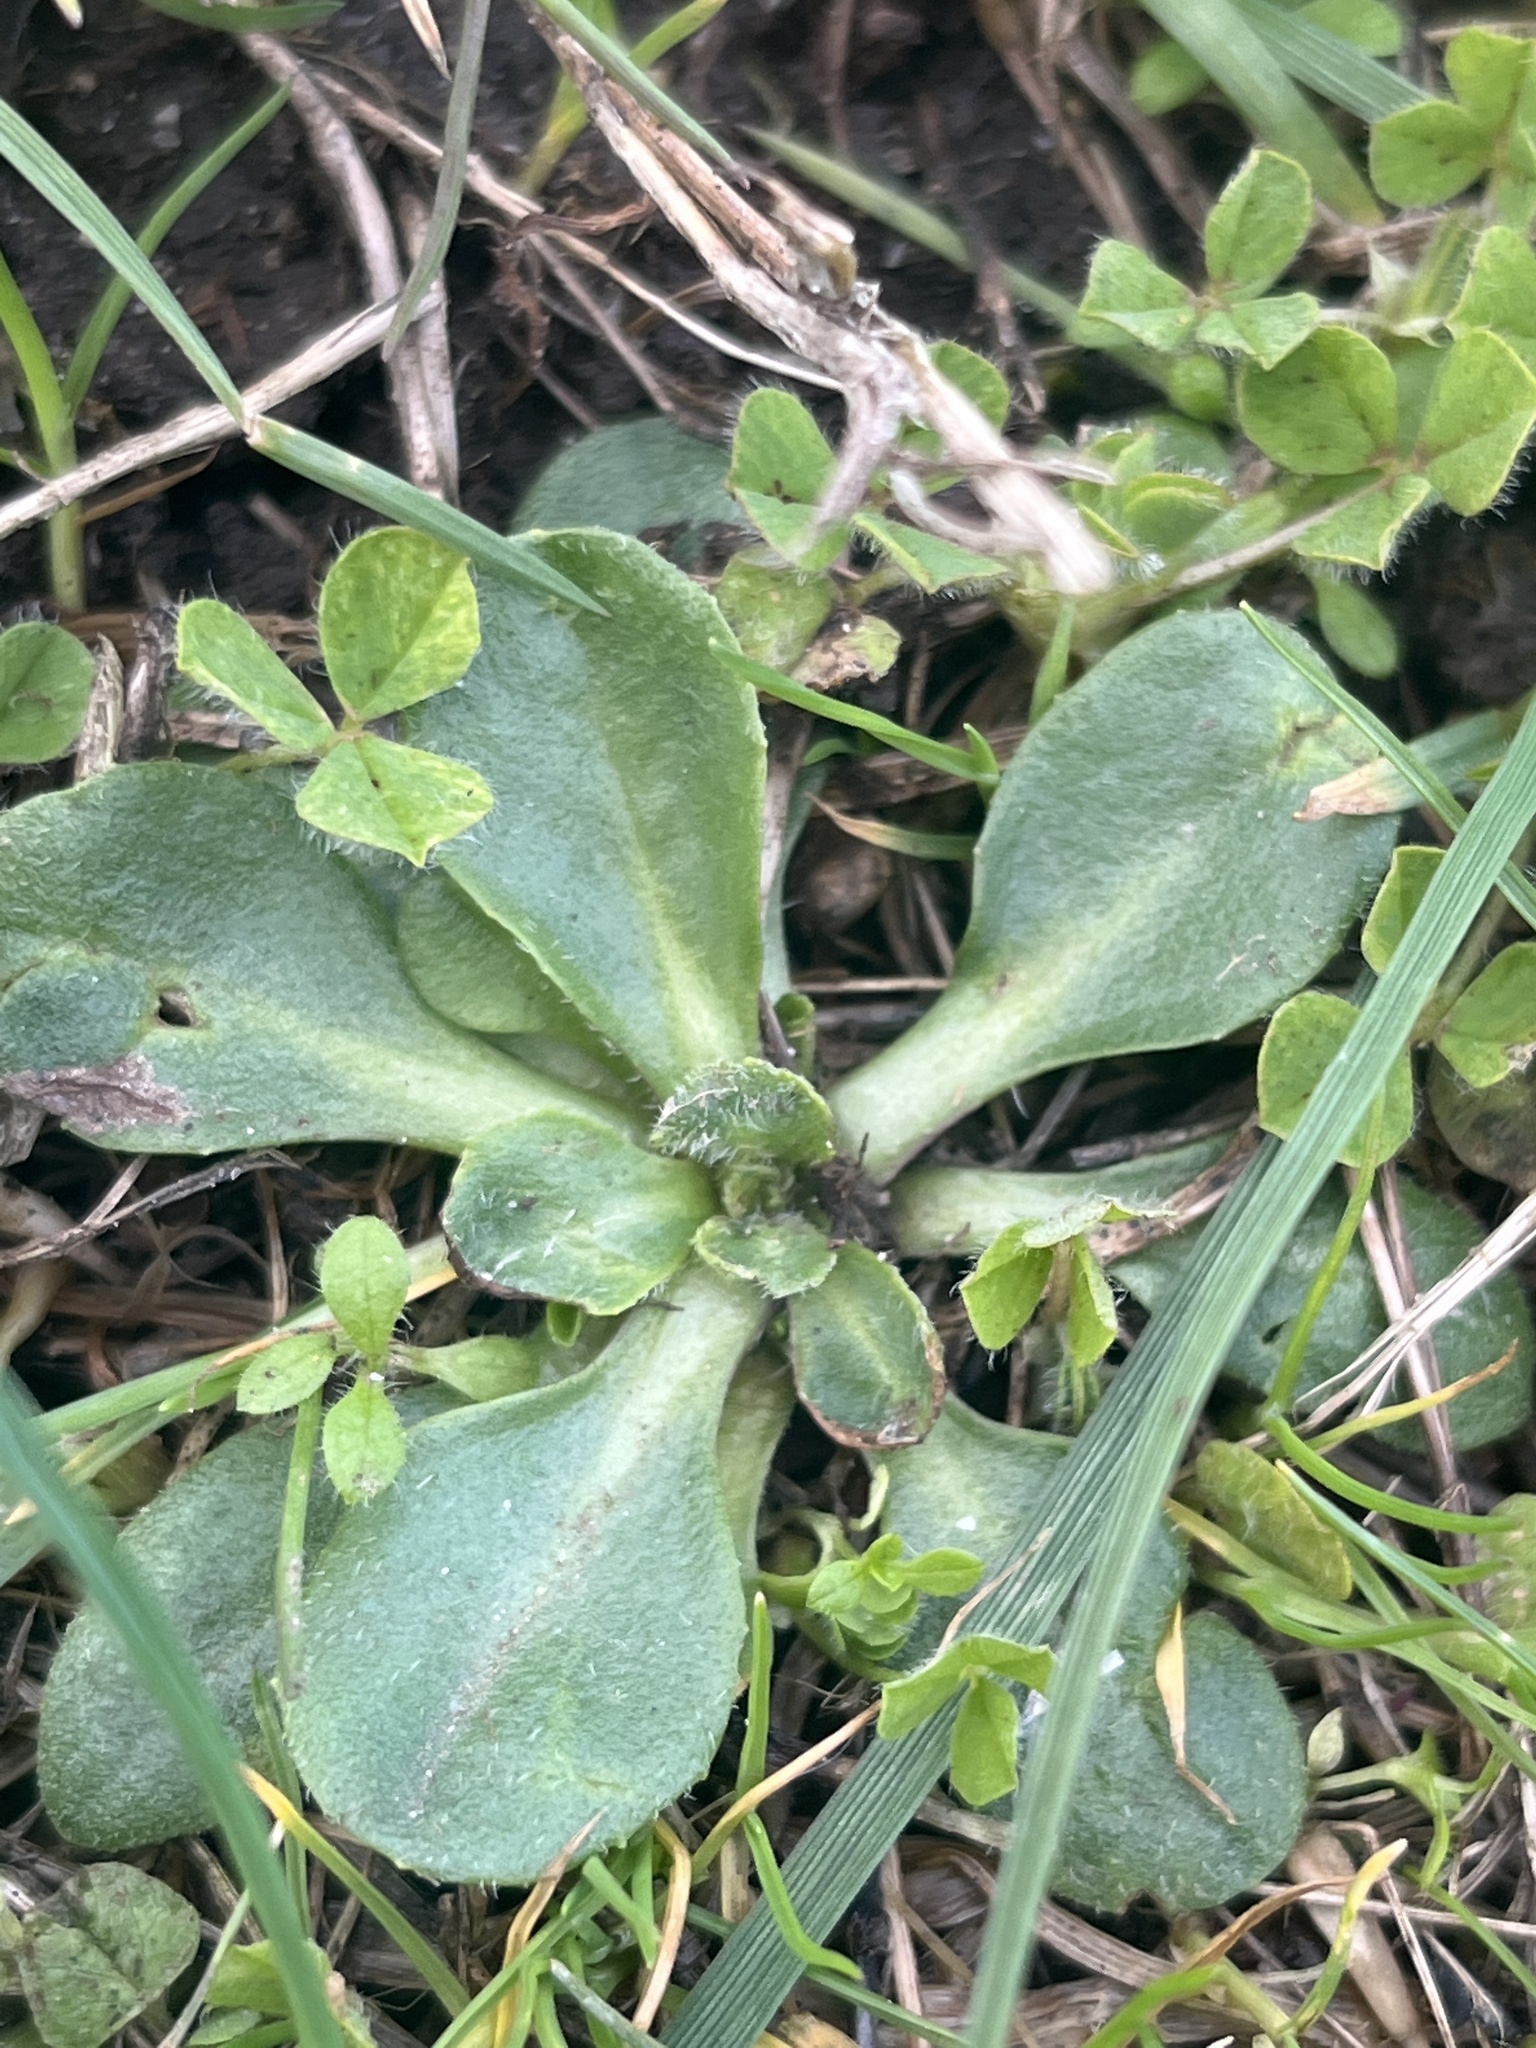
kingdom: Plantae
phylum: Tracheophyta
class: Magnoliopsida
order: Asterales
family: Asteraceae
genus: Bellis
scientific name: Bellis perennis
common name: Lawndaisy
